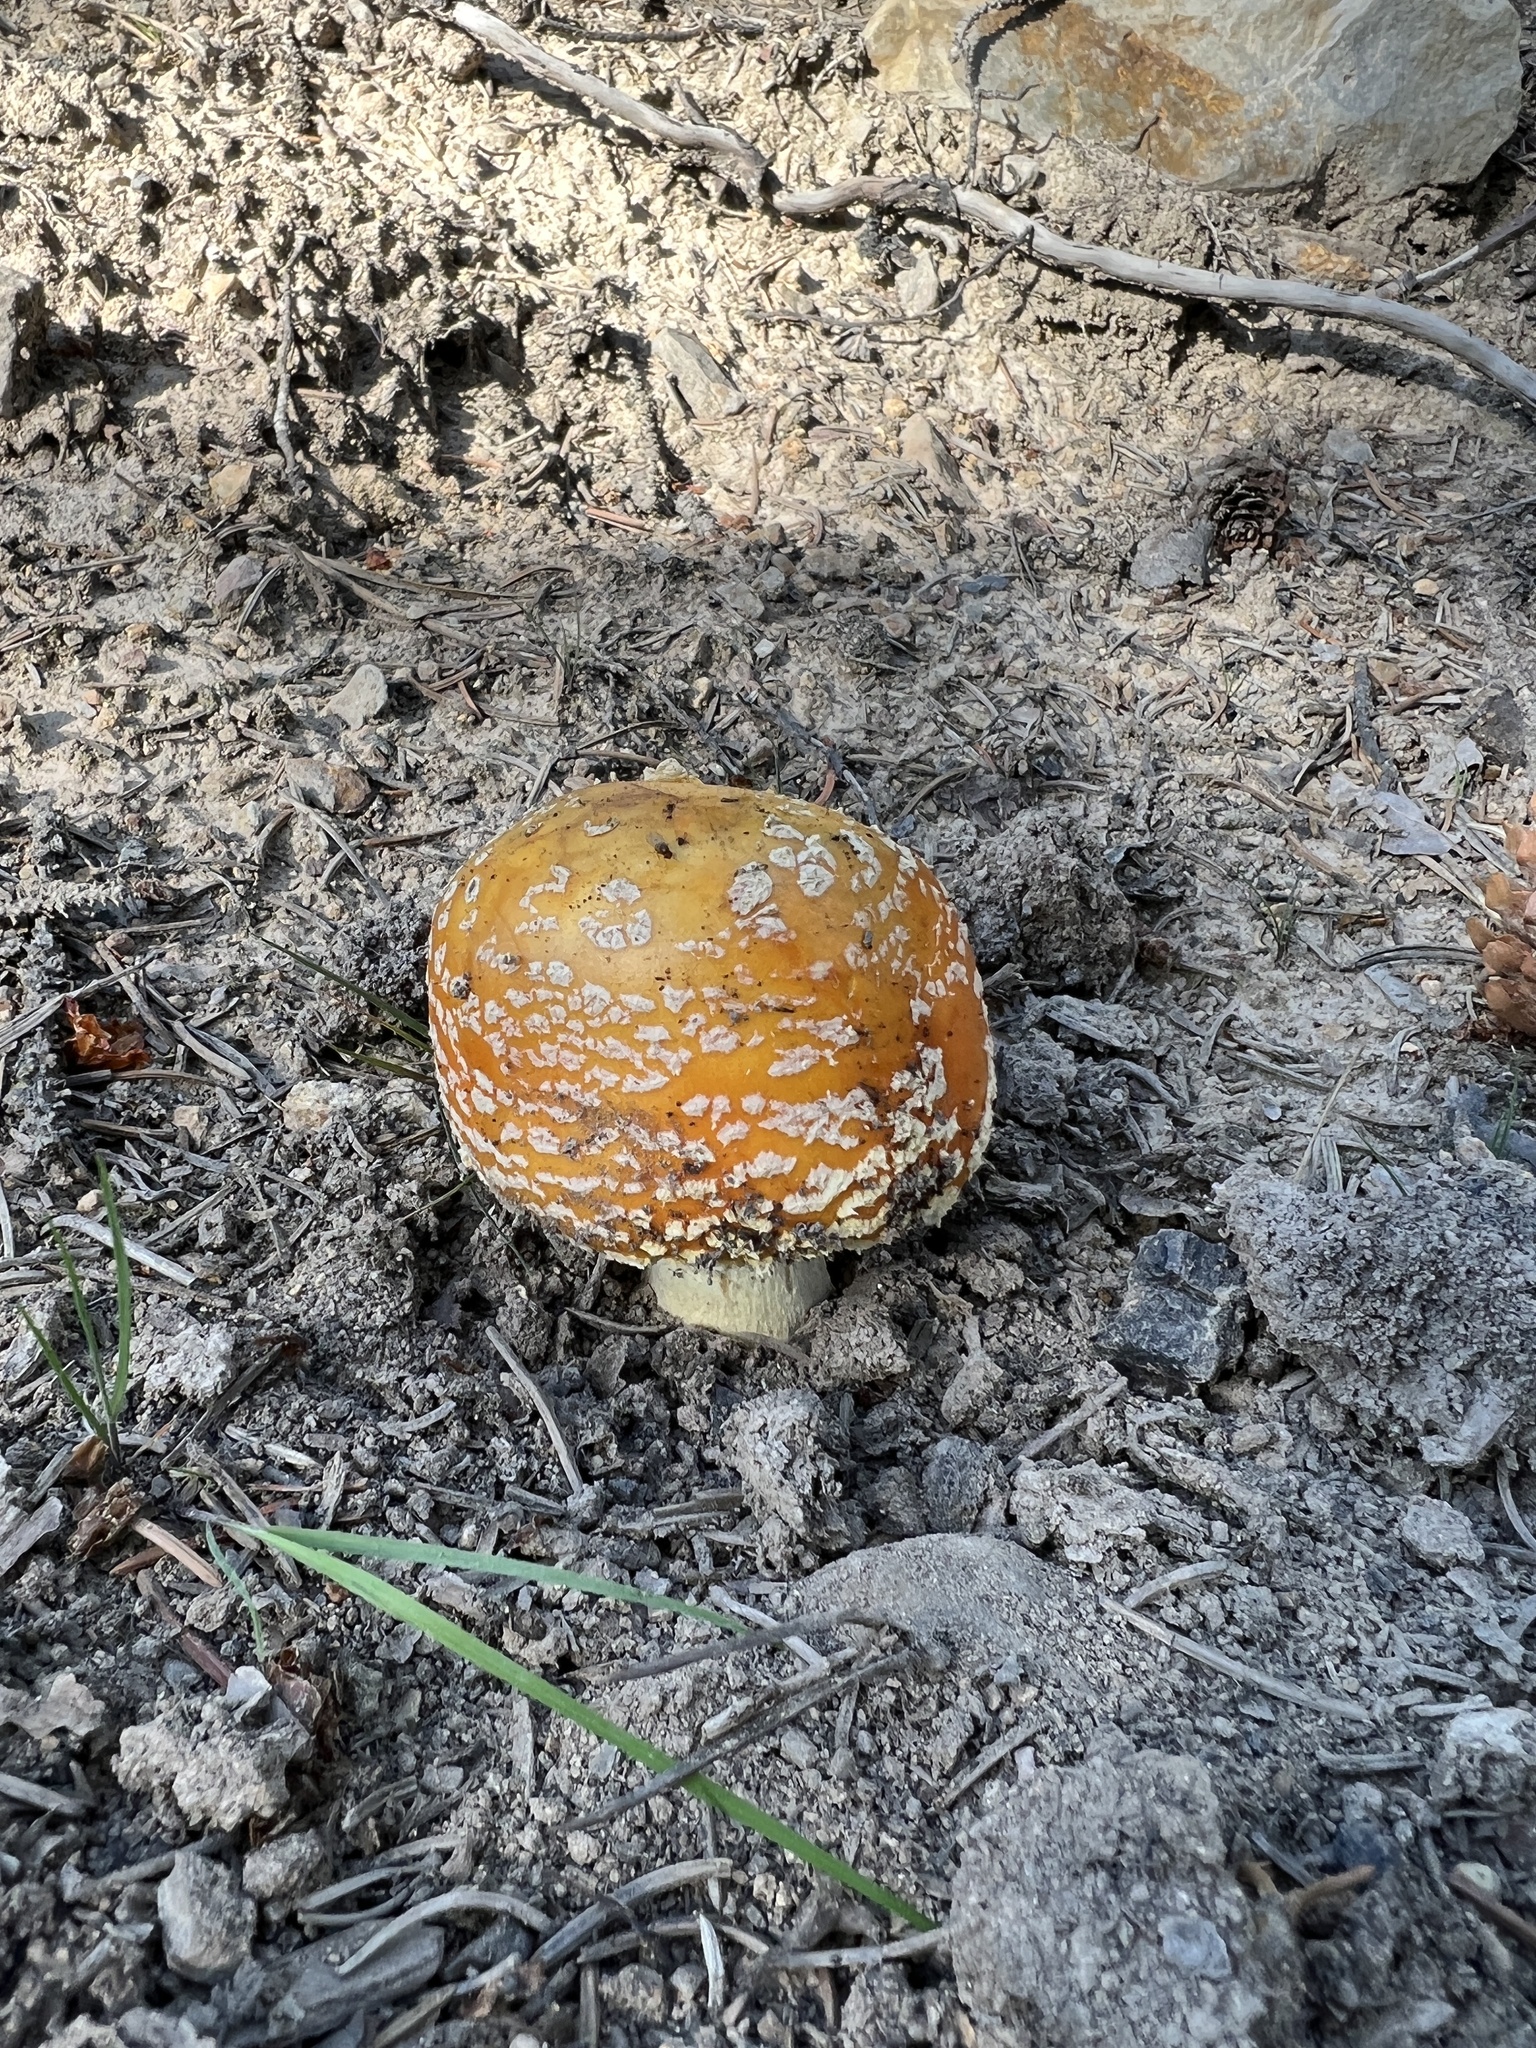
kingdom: Fungi
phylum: Basidiomycota
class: Agaricomycetes
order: Agaricales
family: Amanitaceae
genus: Amanita
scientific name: Amanita muscaria
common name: Fly agaric
